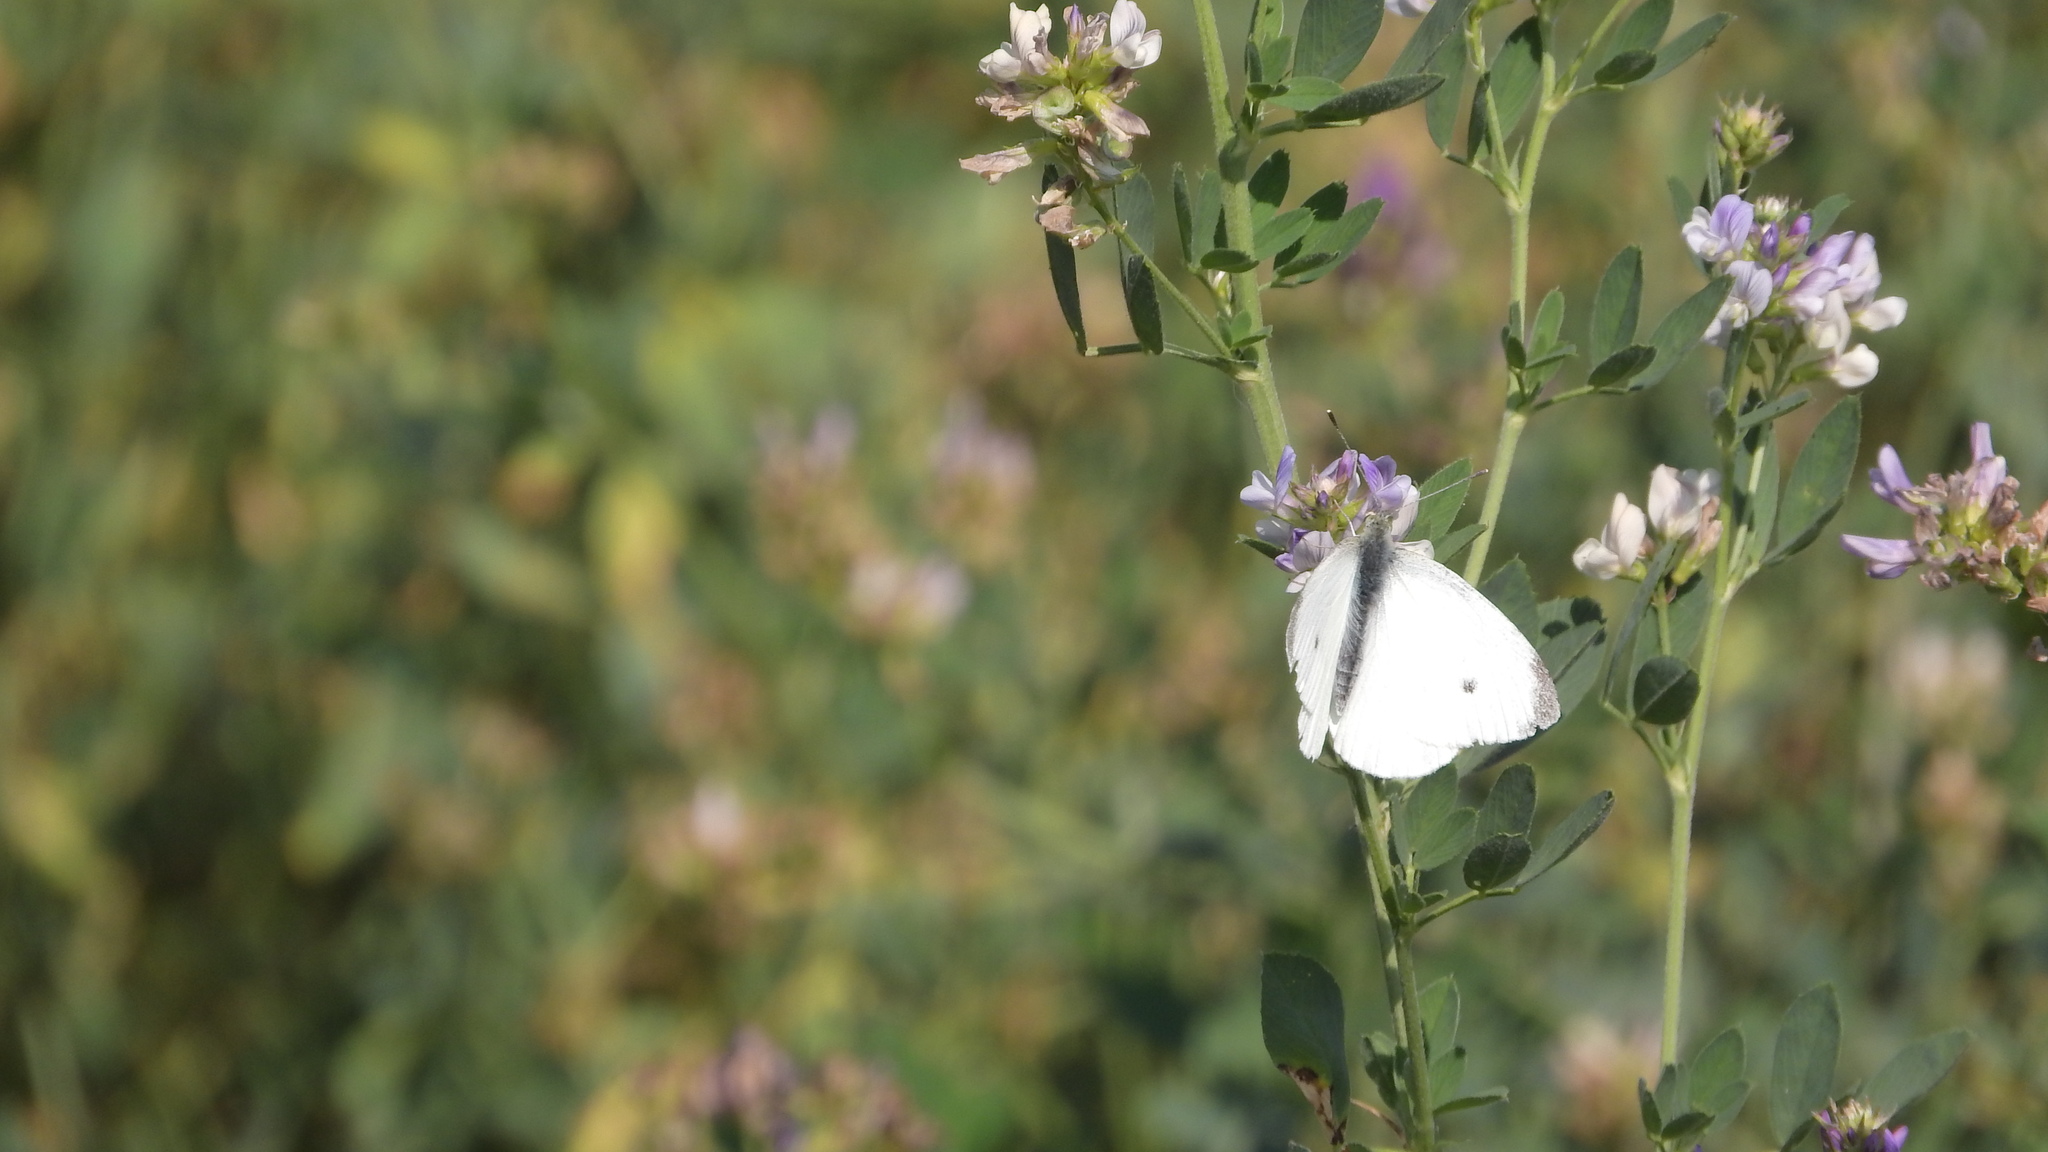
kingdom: Animalia
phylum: Arthropoda
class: Insecta
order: Lepidoptera
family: Pieridae
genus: Pieris
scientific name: Pieris rapae
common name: Small white
